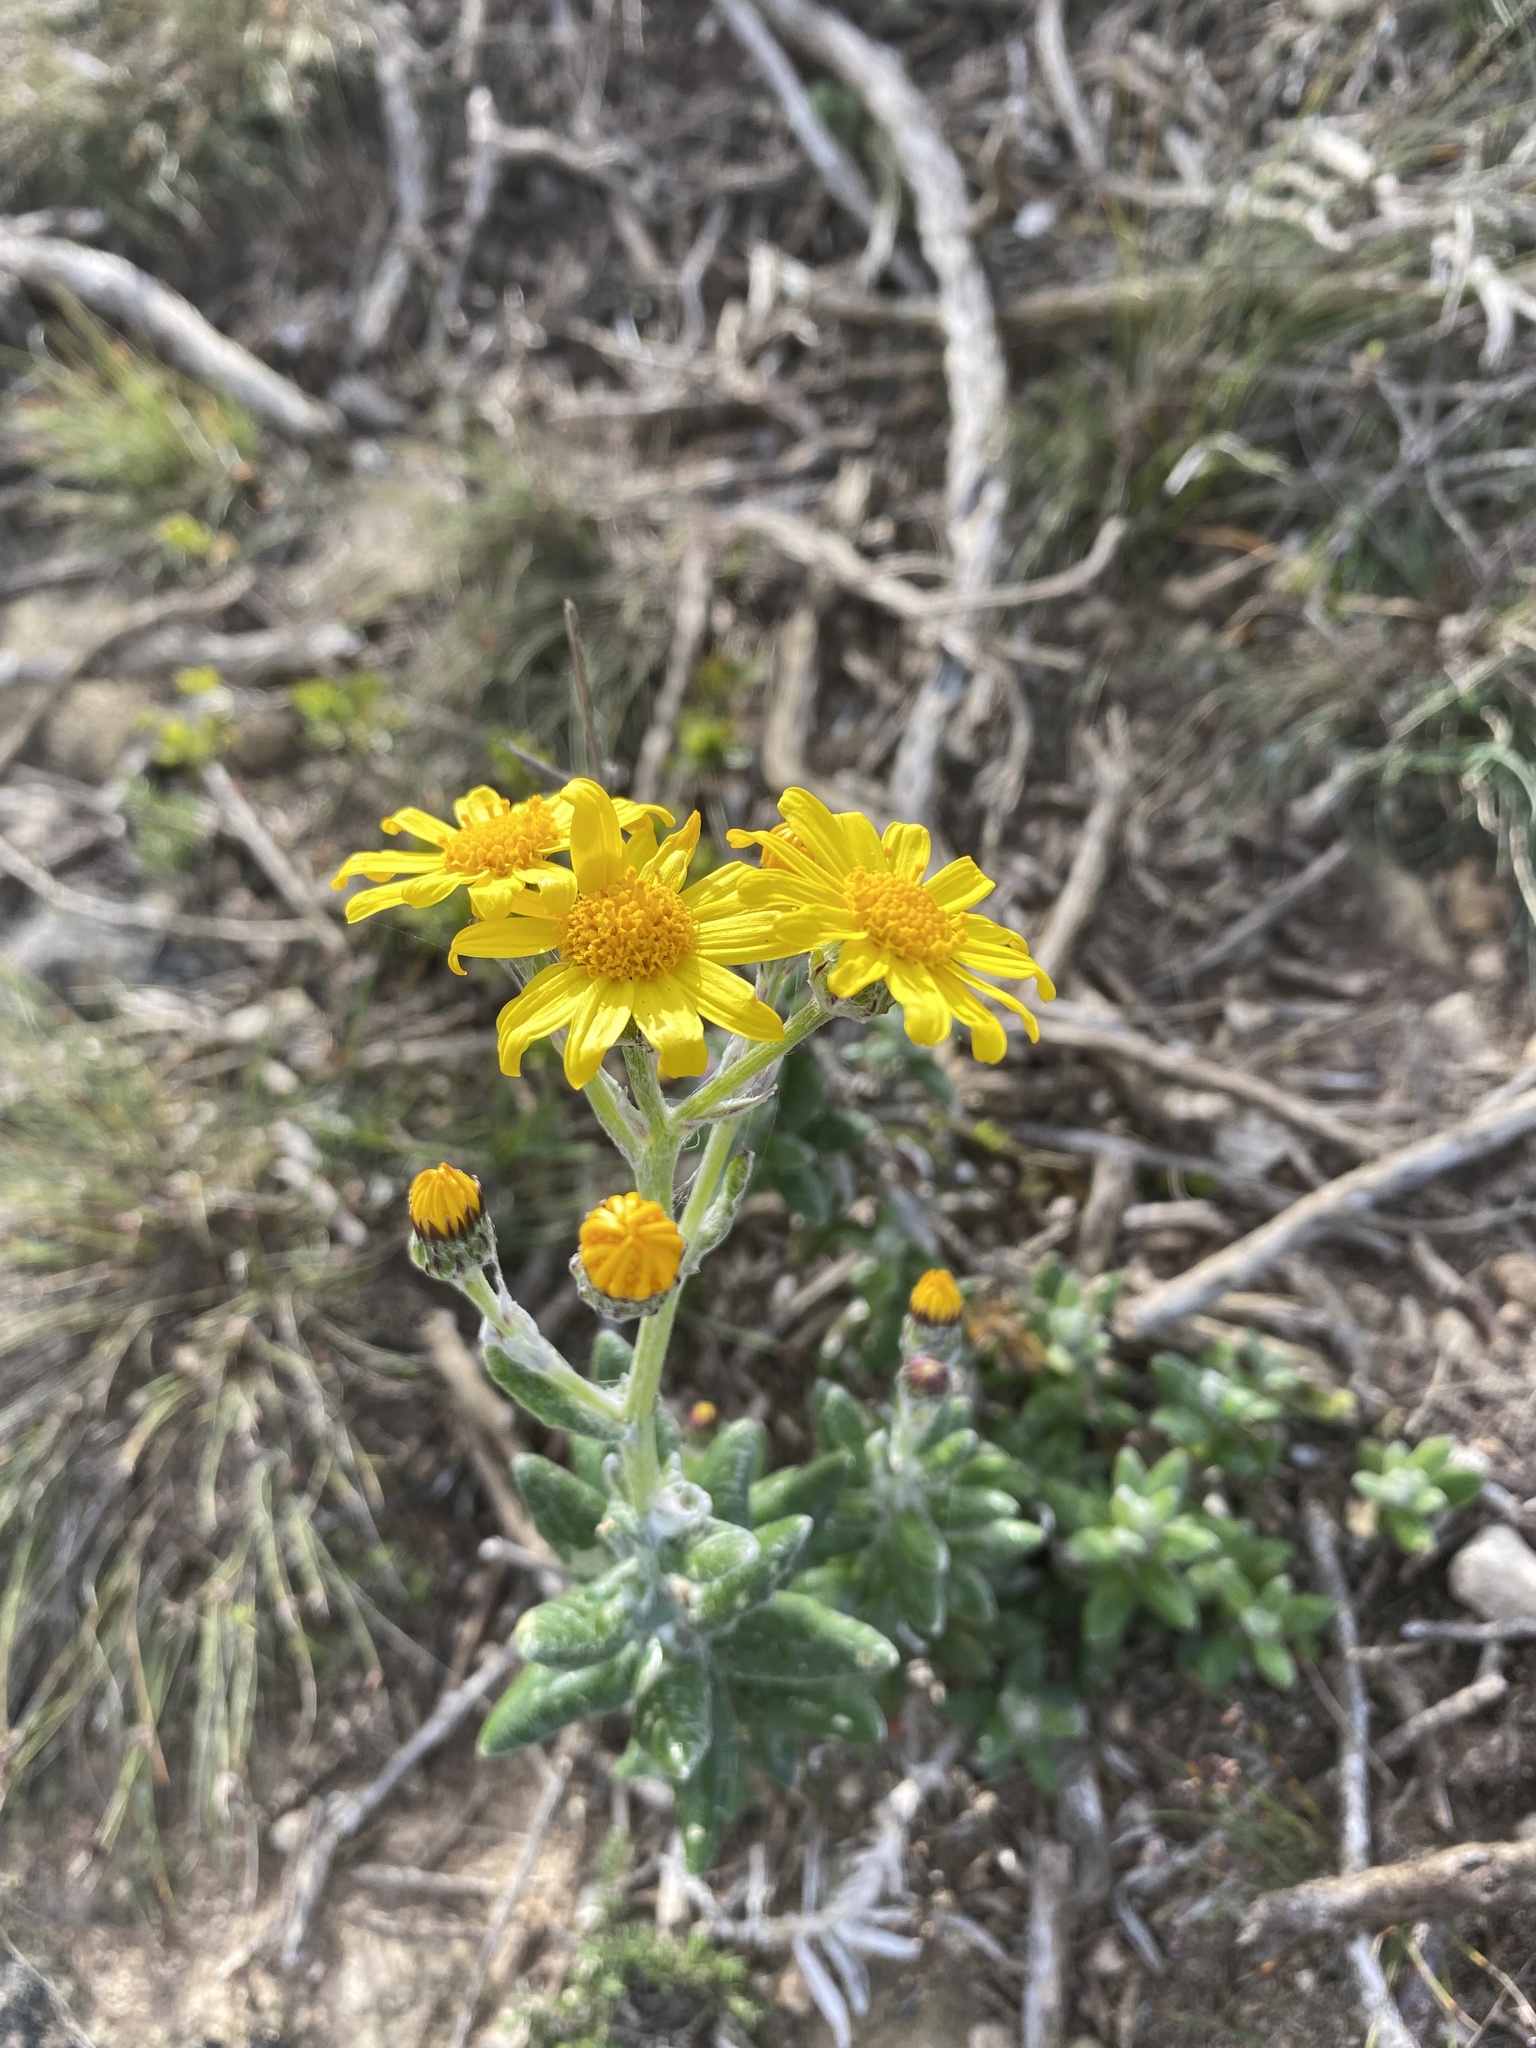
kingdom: Plantae
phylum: Tracheophyta
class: Magnoliopsida
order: Asterales
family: Asteraceae
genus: Senecio
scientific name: Senecio arniciflorus
